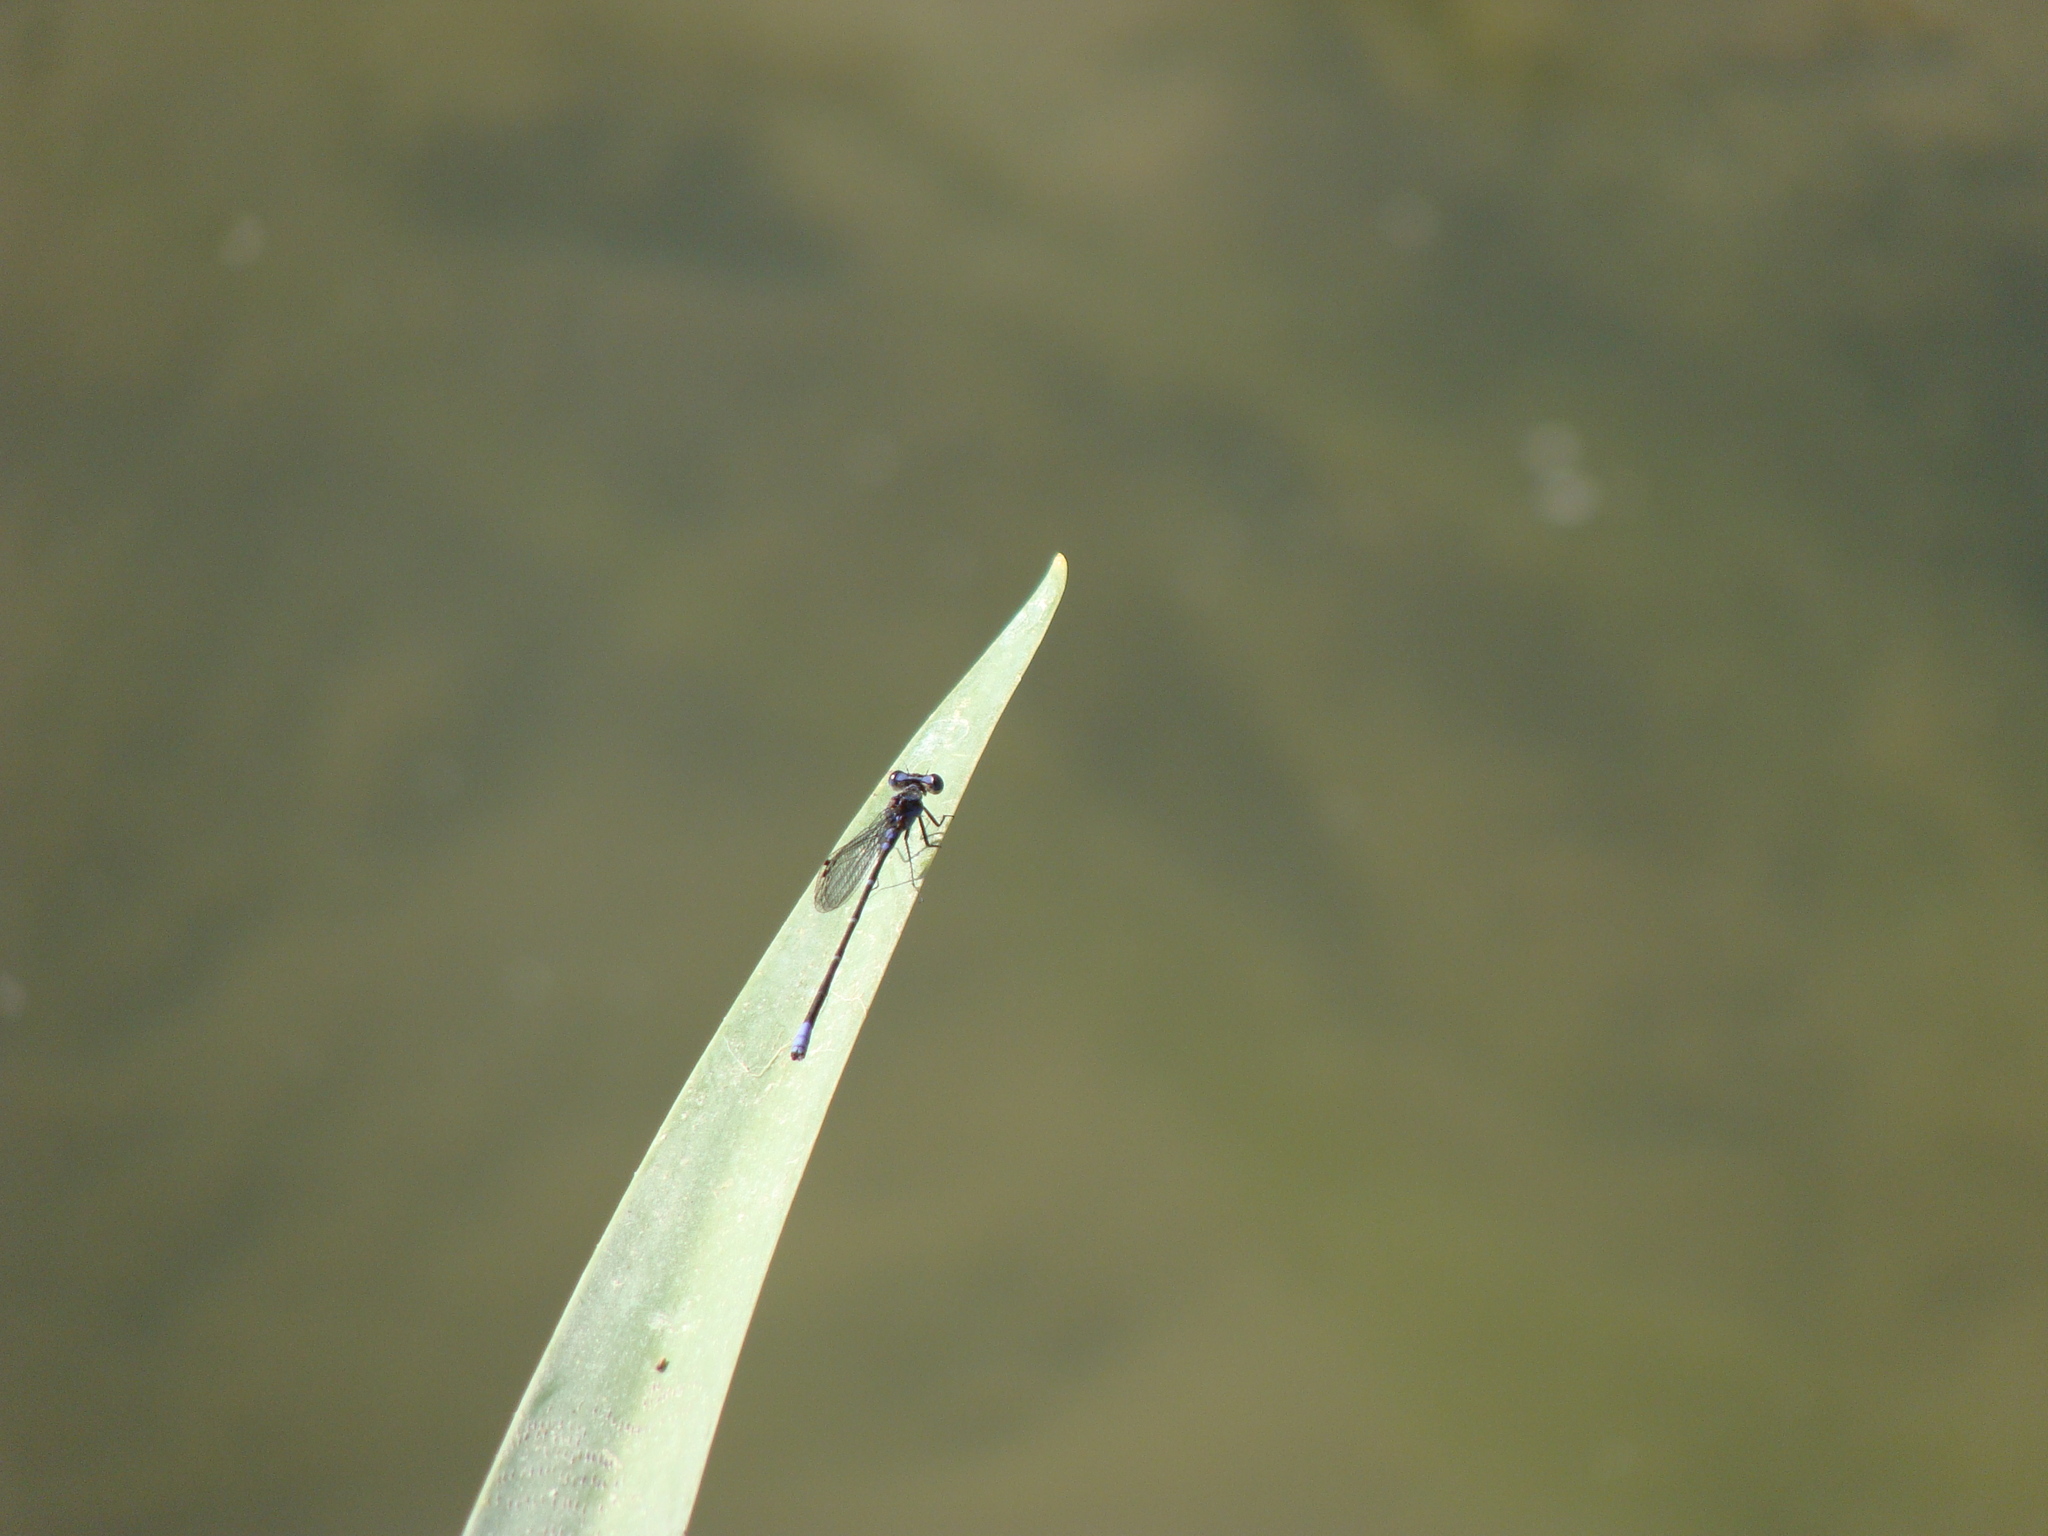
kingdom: Animalia
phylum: Arthropoda
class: Insecta
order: Odonata
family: Coenagrionidae
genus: Argia
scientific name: Argia oculata
